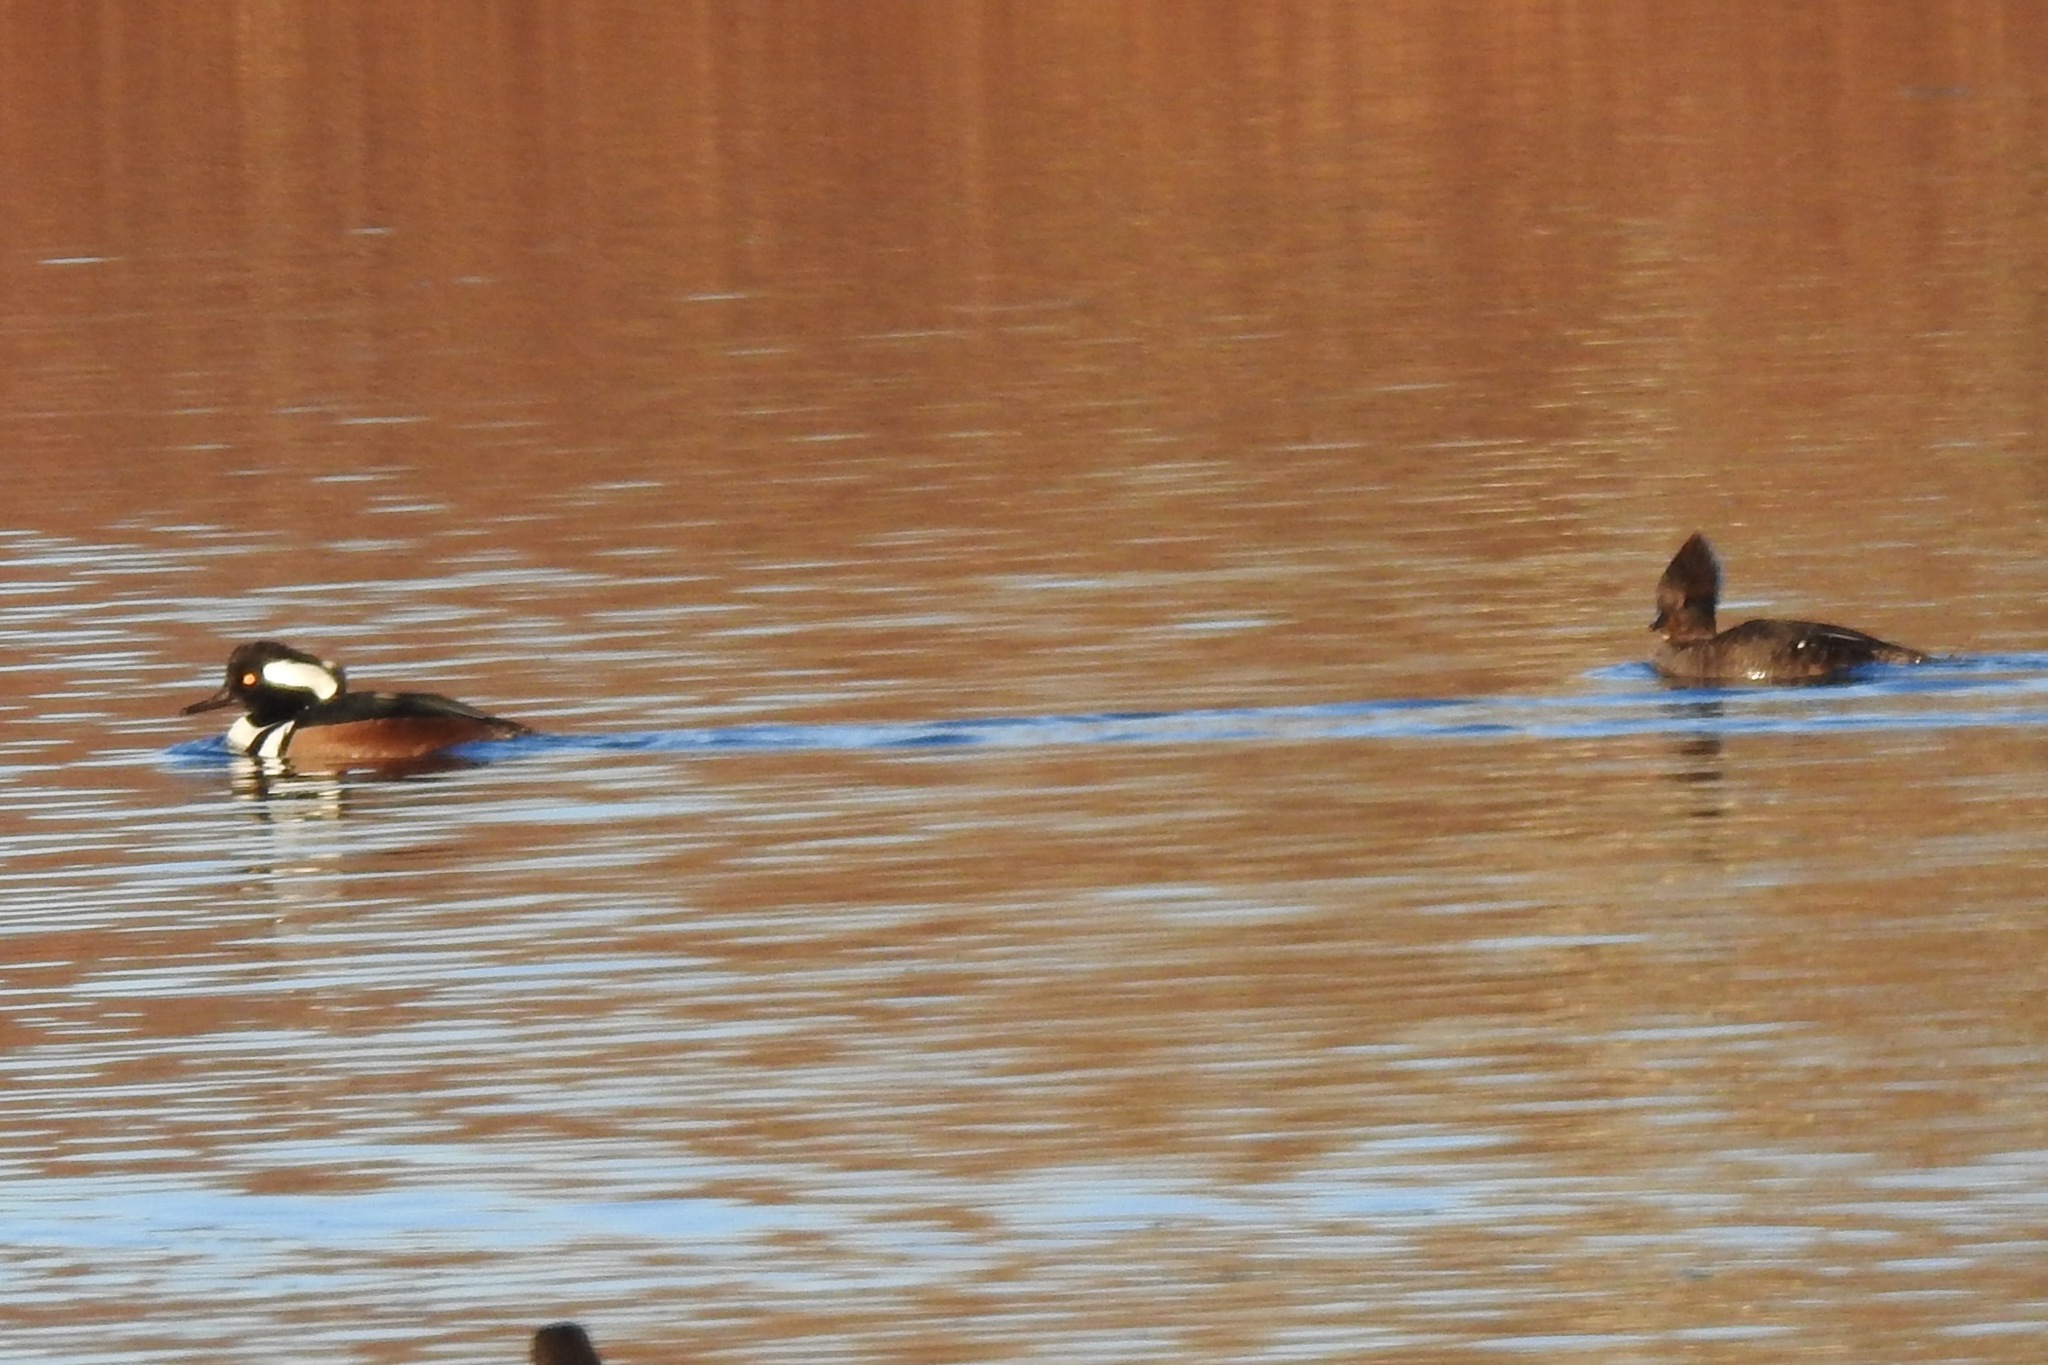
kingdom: Animalia
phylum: Chordata
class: Aves
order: Anseriformes
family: Anatidae
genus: Lophodytes
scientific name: Lophodytes cucullatus
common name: Hooded merganser
